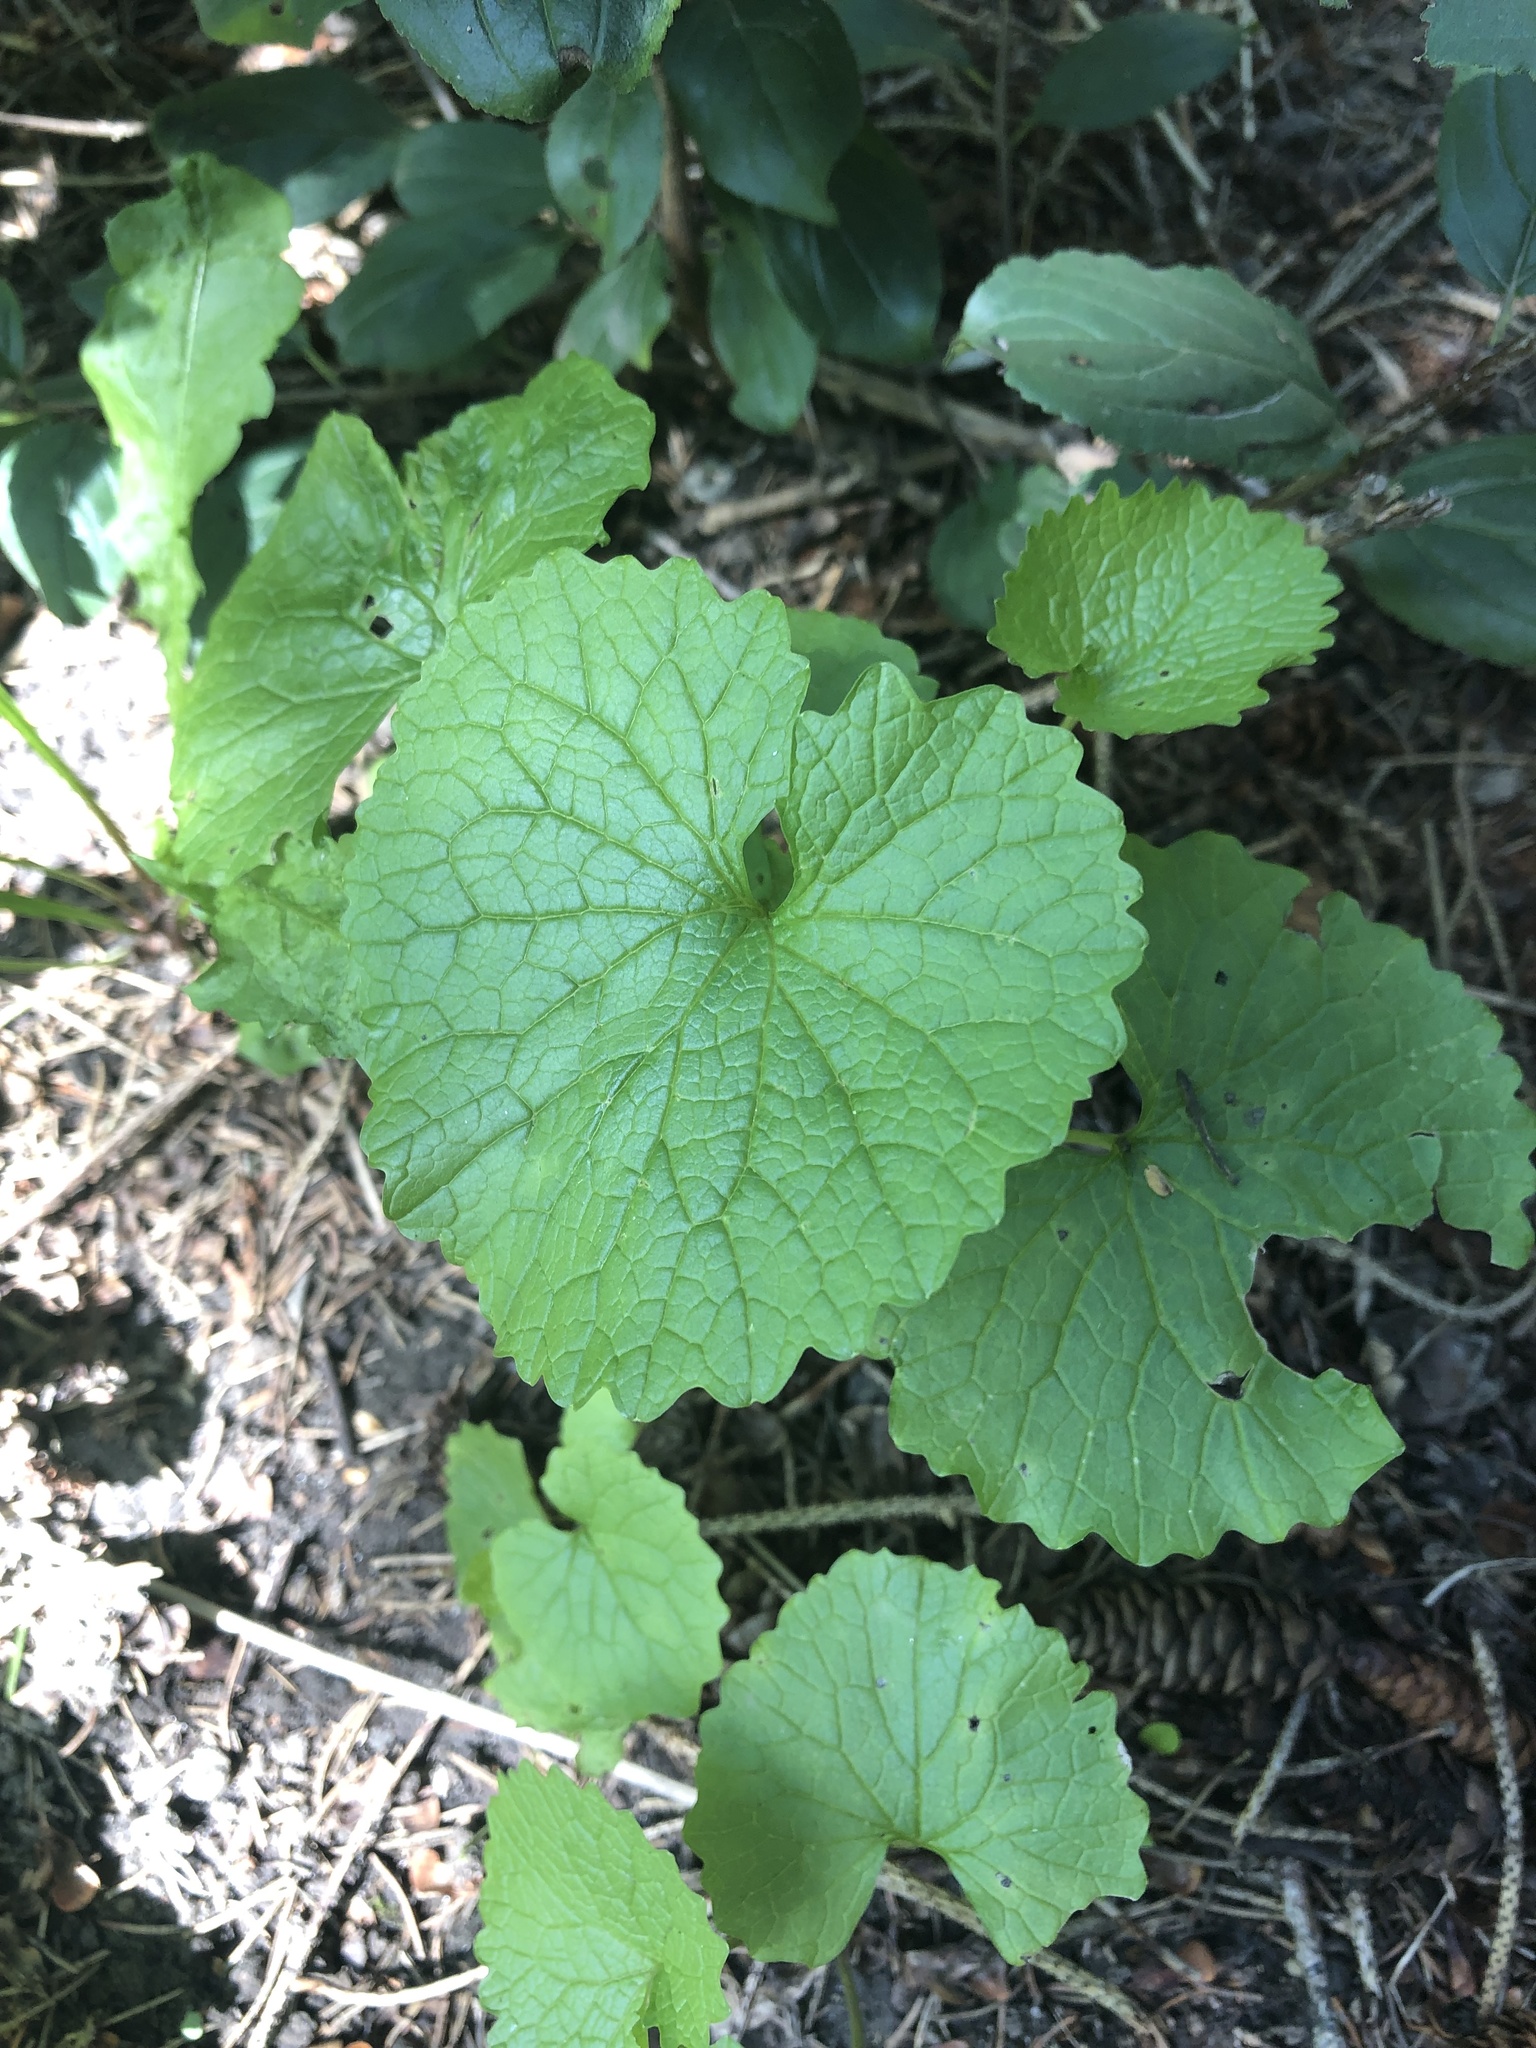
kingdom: Plantae
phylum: Tracheophyta
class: Magnoliopsida
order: Brassicales
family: Brassicaceae
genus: Alliaria
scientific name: Alliaria petiolata
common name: Garlic mustard
